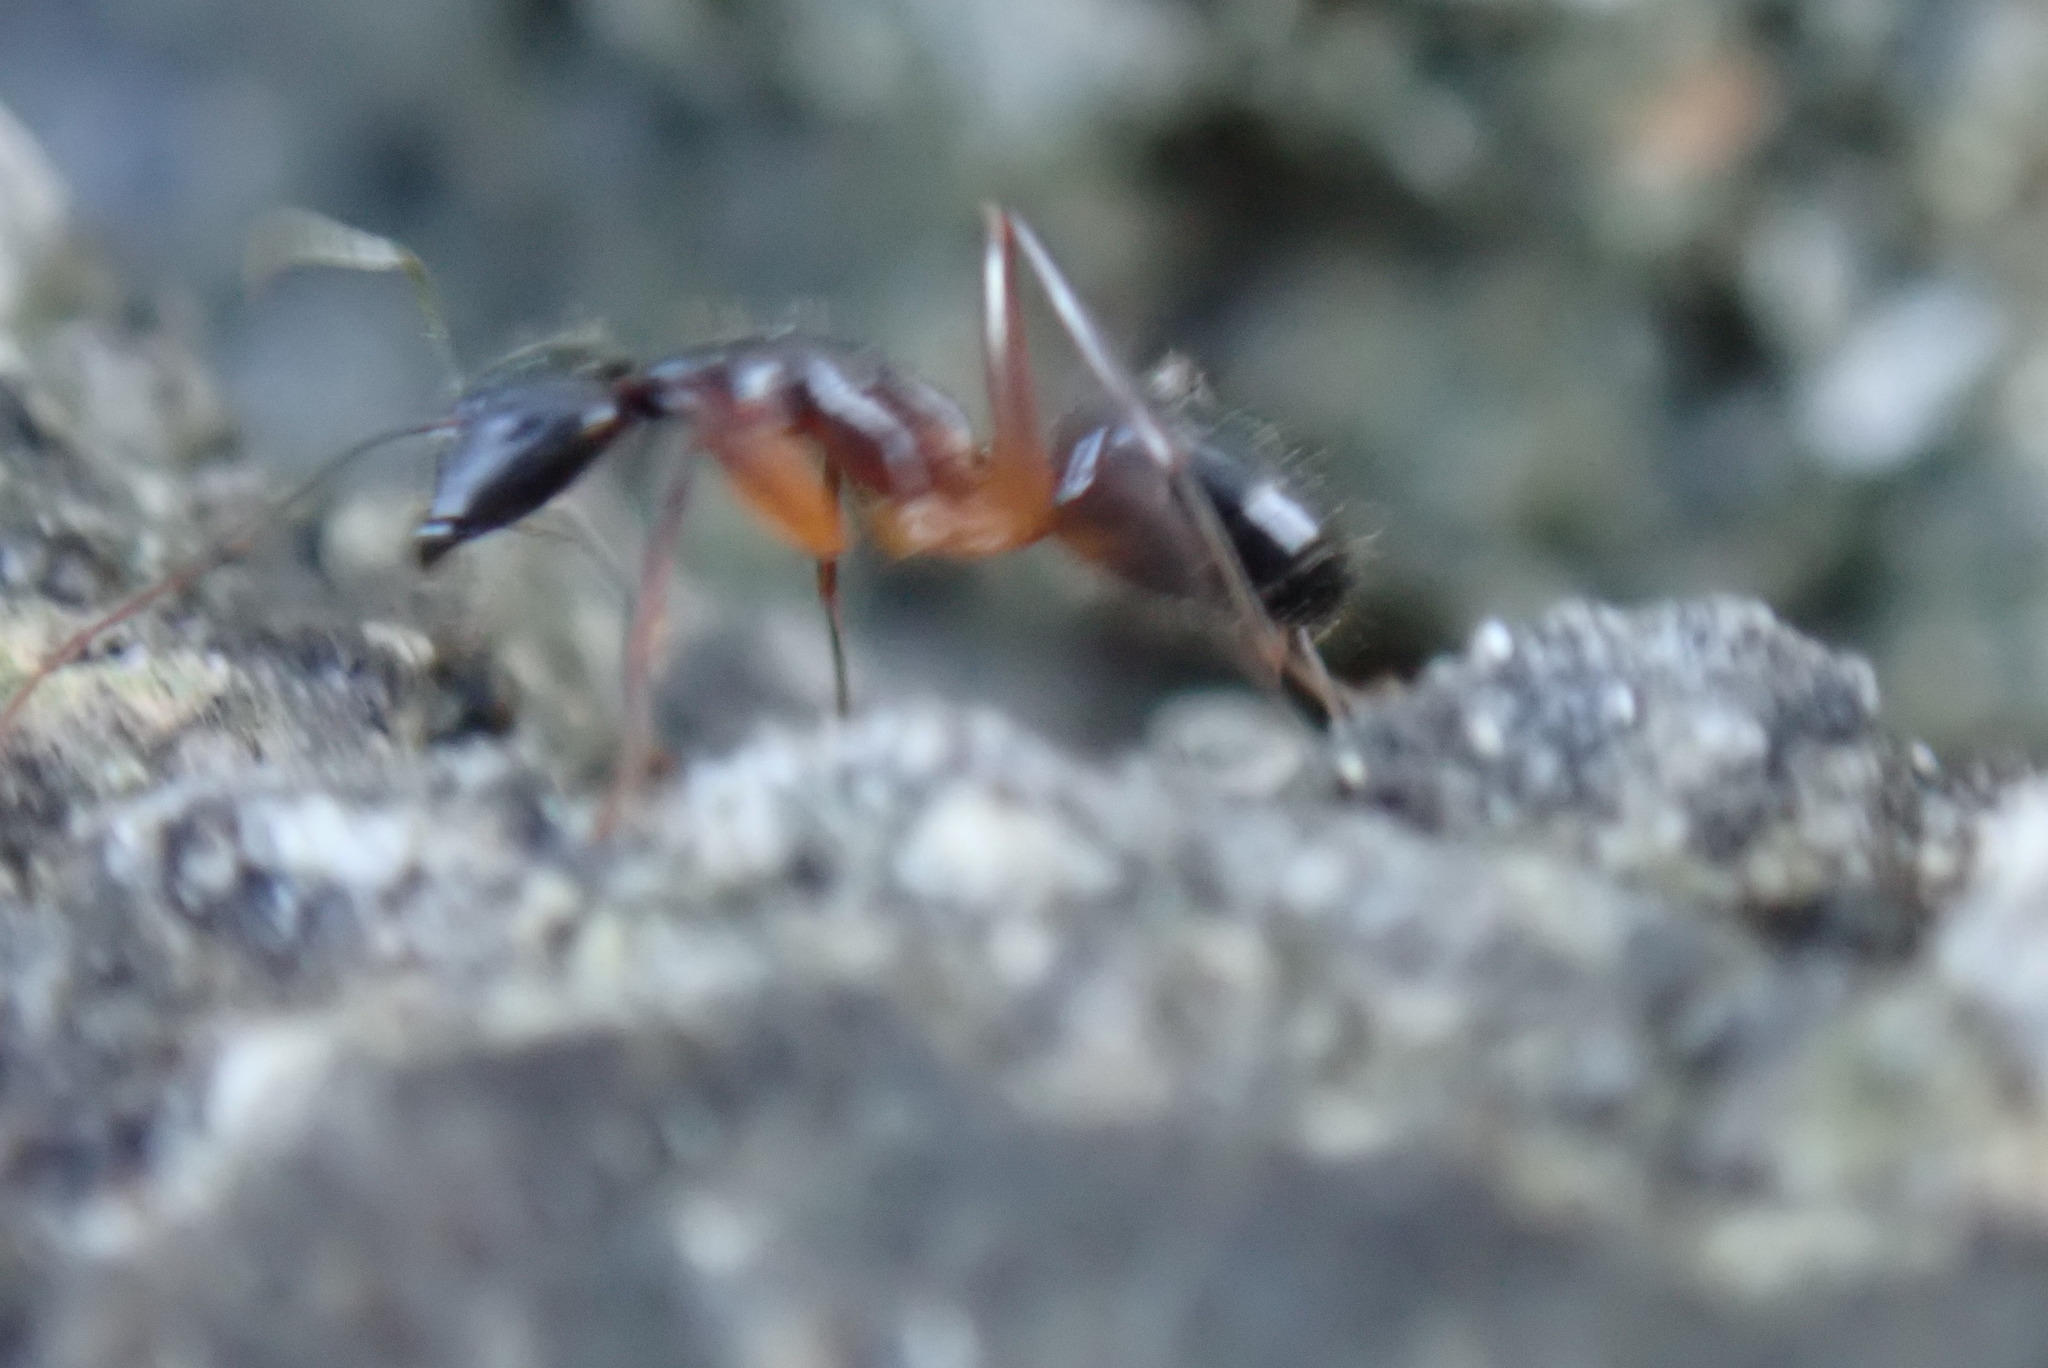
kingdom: Animalia
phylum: Arthropoda
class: Insecta
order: Hymenoptera
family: Formicidae
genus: Camponotus
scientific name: Camponotus barbaricus
